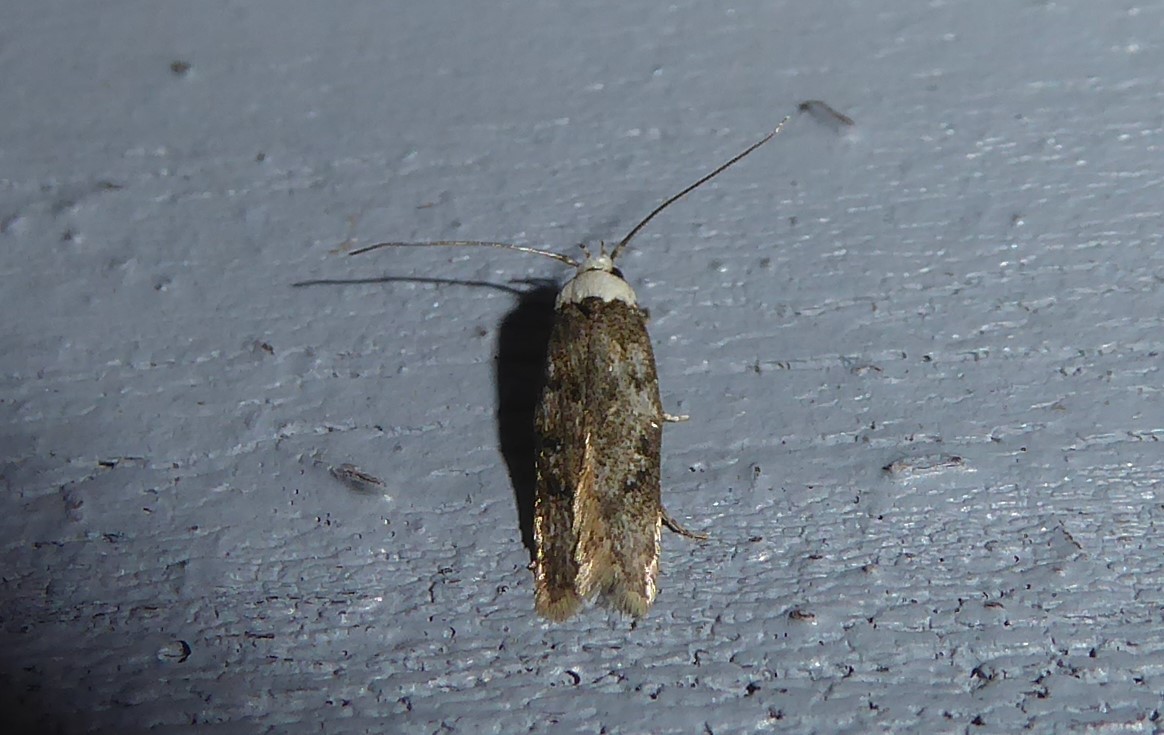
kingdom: Animalia
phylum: Arthropoda
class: Insecta
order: Lepidoptera
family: Oecophoridae
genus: Endrosis
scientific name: Endrosis sarcitrella
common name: White-shouldered house moth
